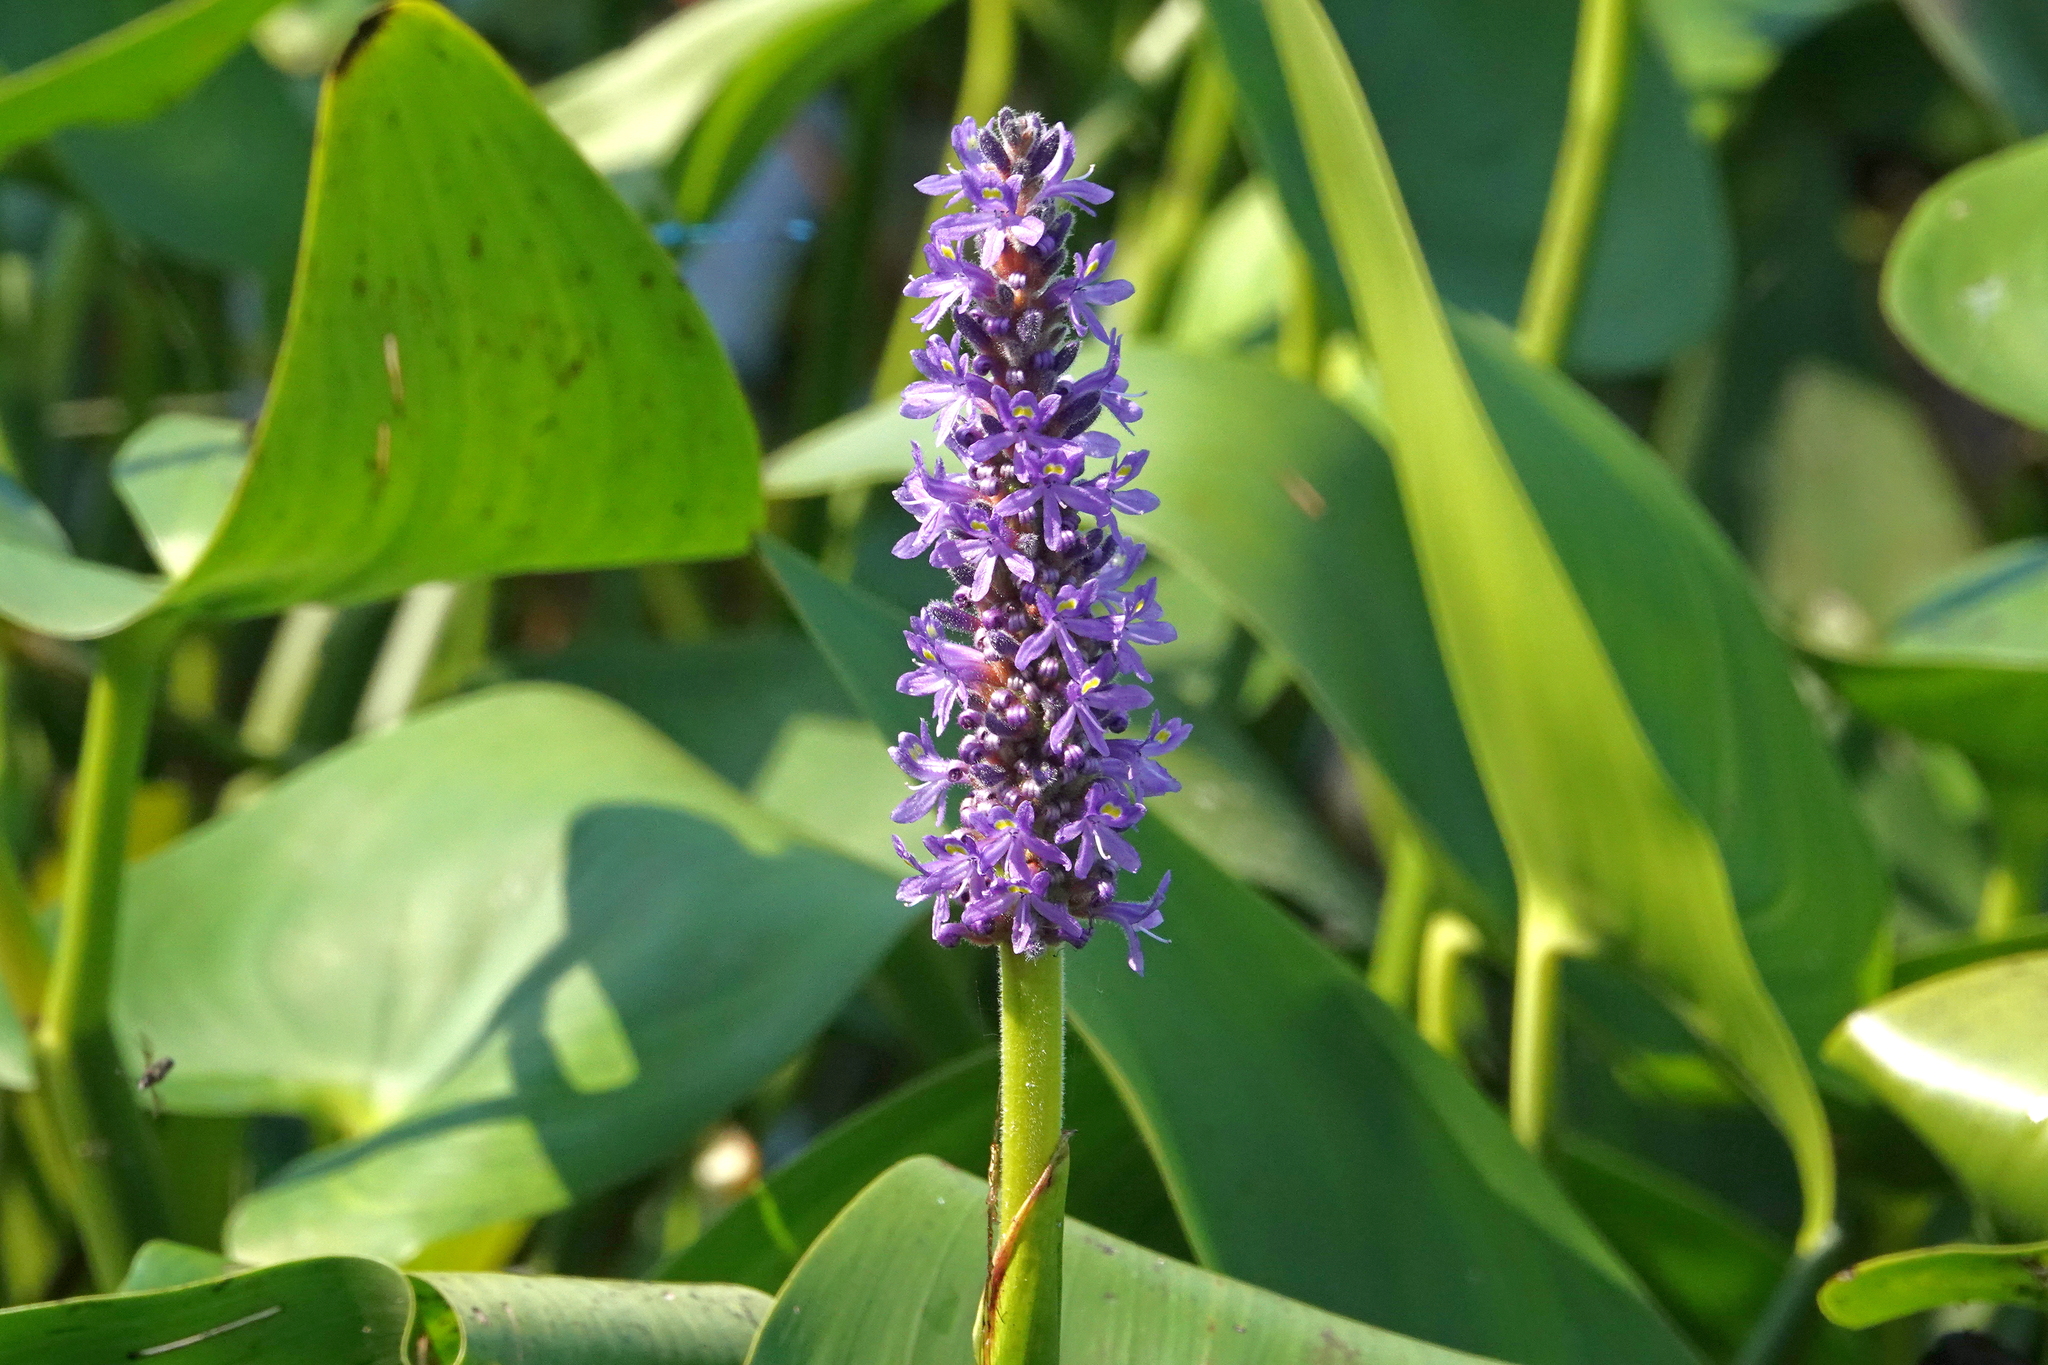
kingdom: Plantae
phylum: Tracheophyta
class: Liliopsida
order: Commelinales
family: Pontederiaceae
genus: Pontederia
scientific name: Pontederia cordata
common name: Pickerelweed
